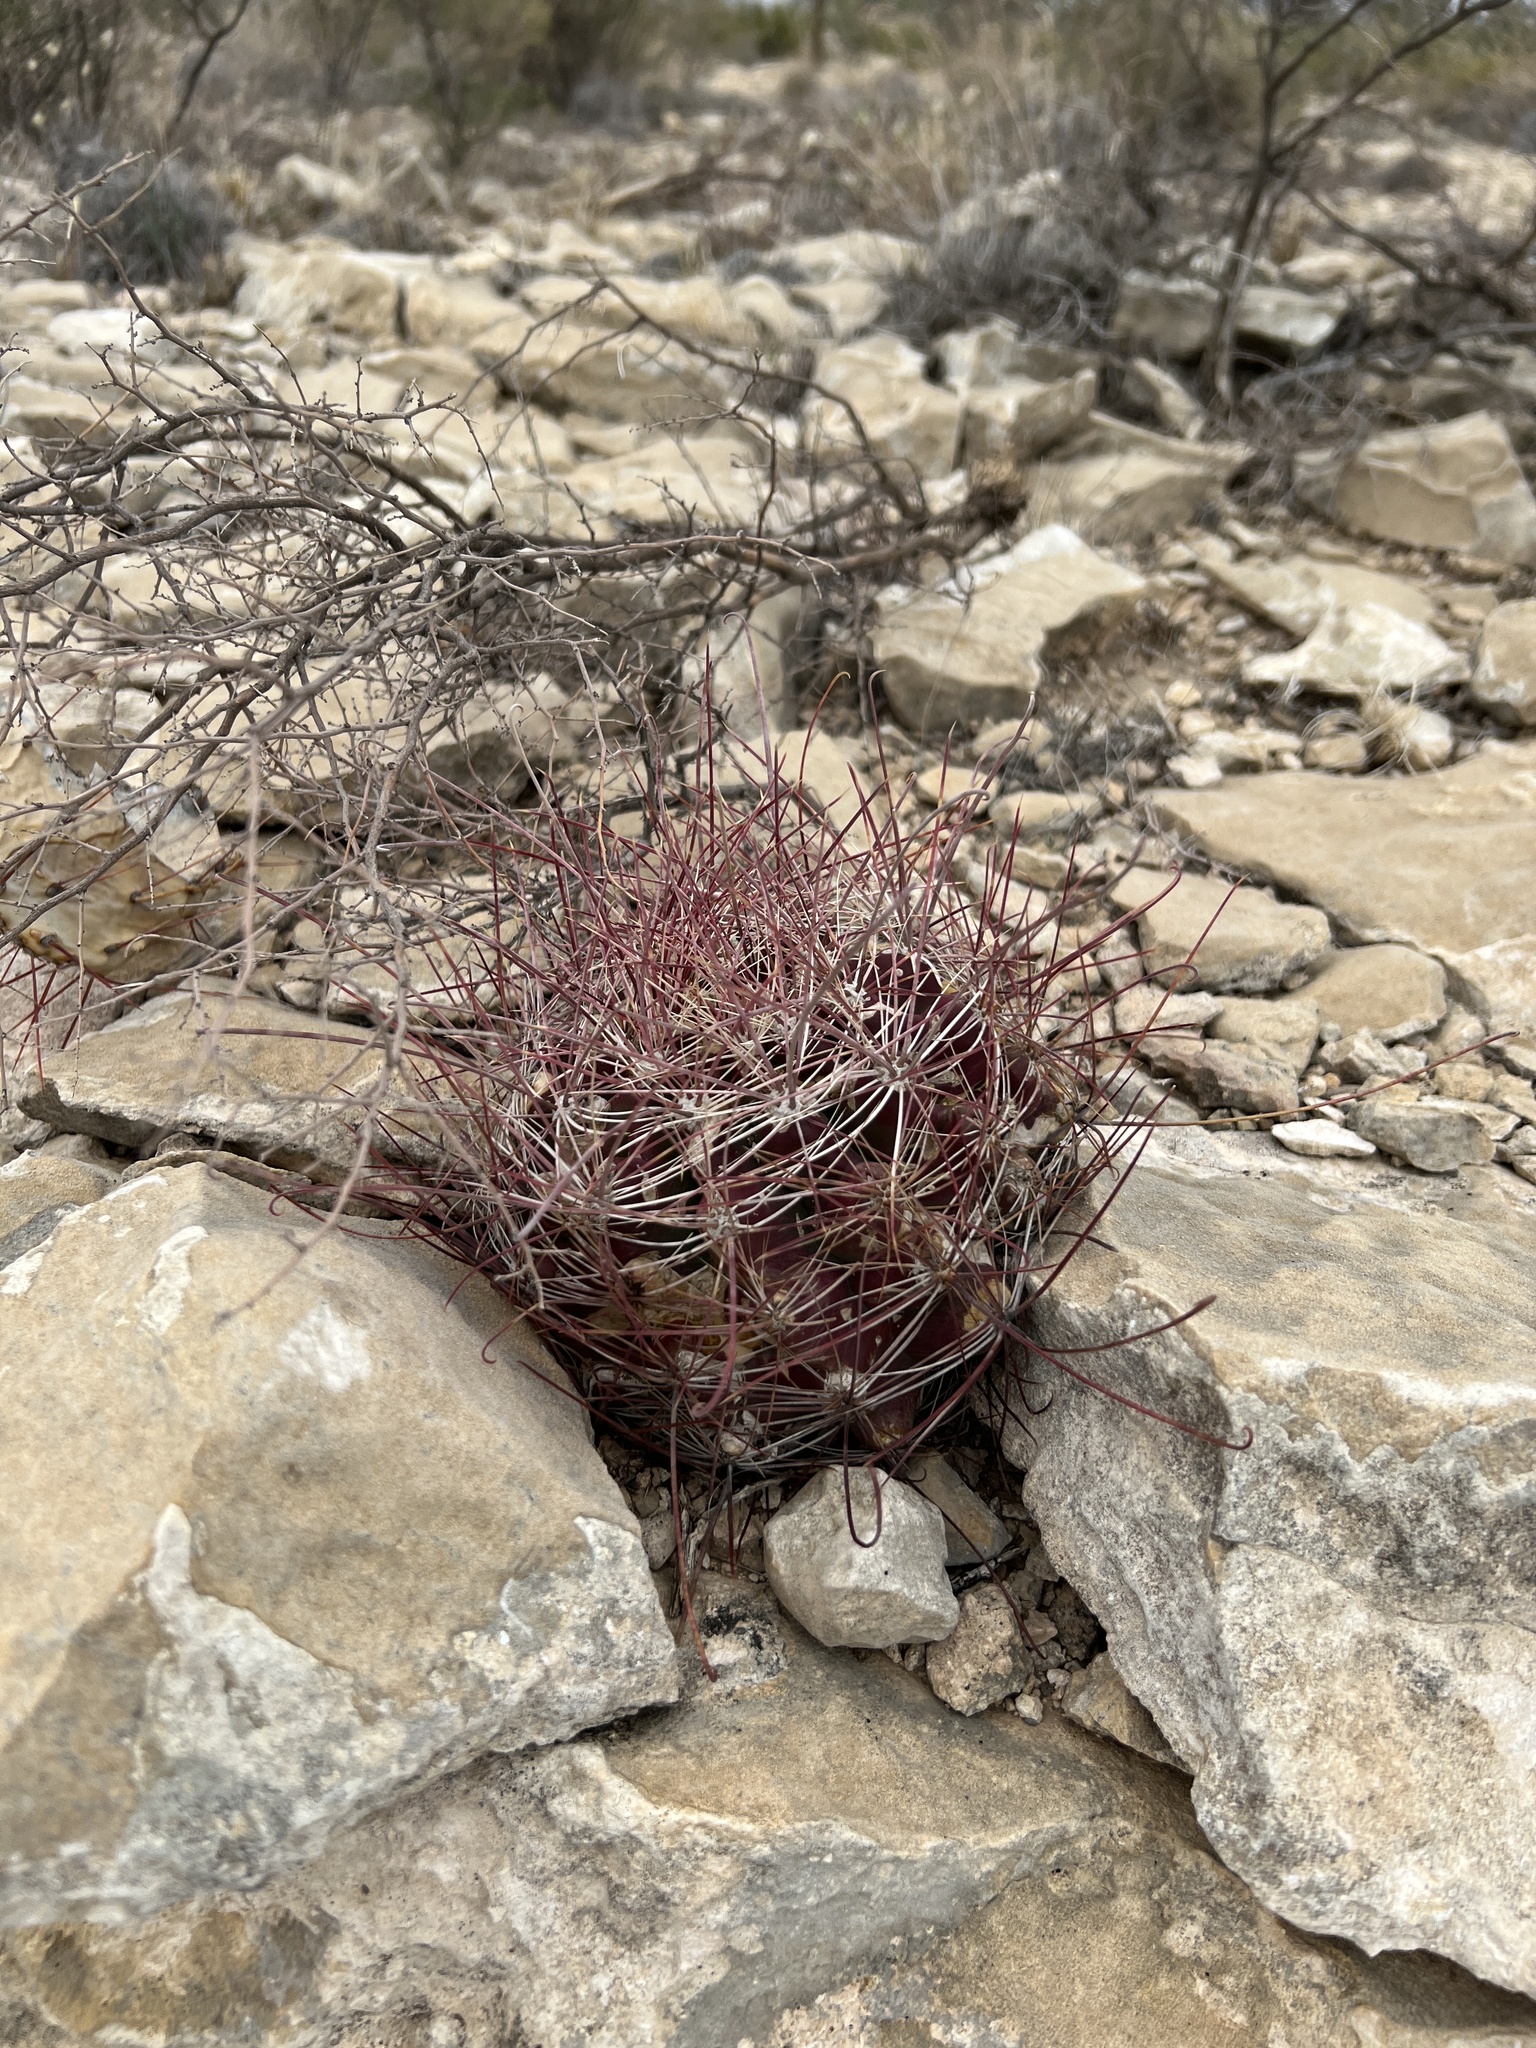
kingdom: Plantae
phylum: Tracheophyta
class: Magnoliopsida
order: Caryophyllales
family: Cactaceae
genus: Bisnaga
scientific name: Bisnaga hamatacantha
